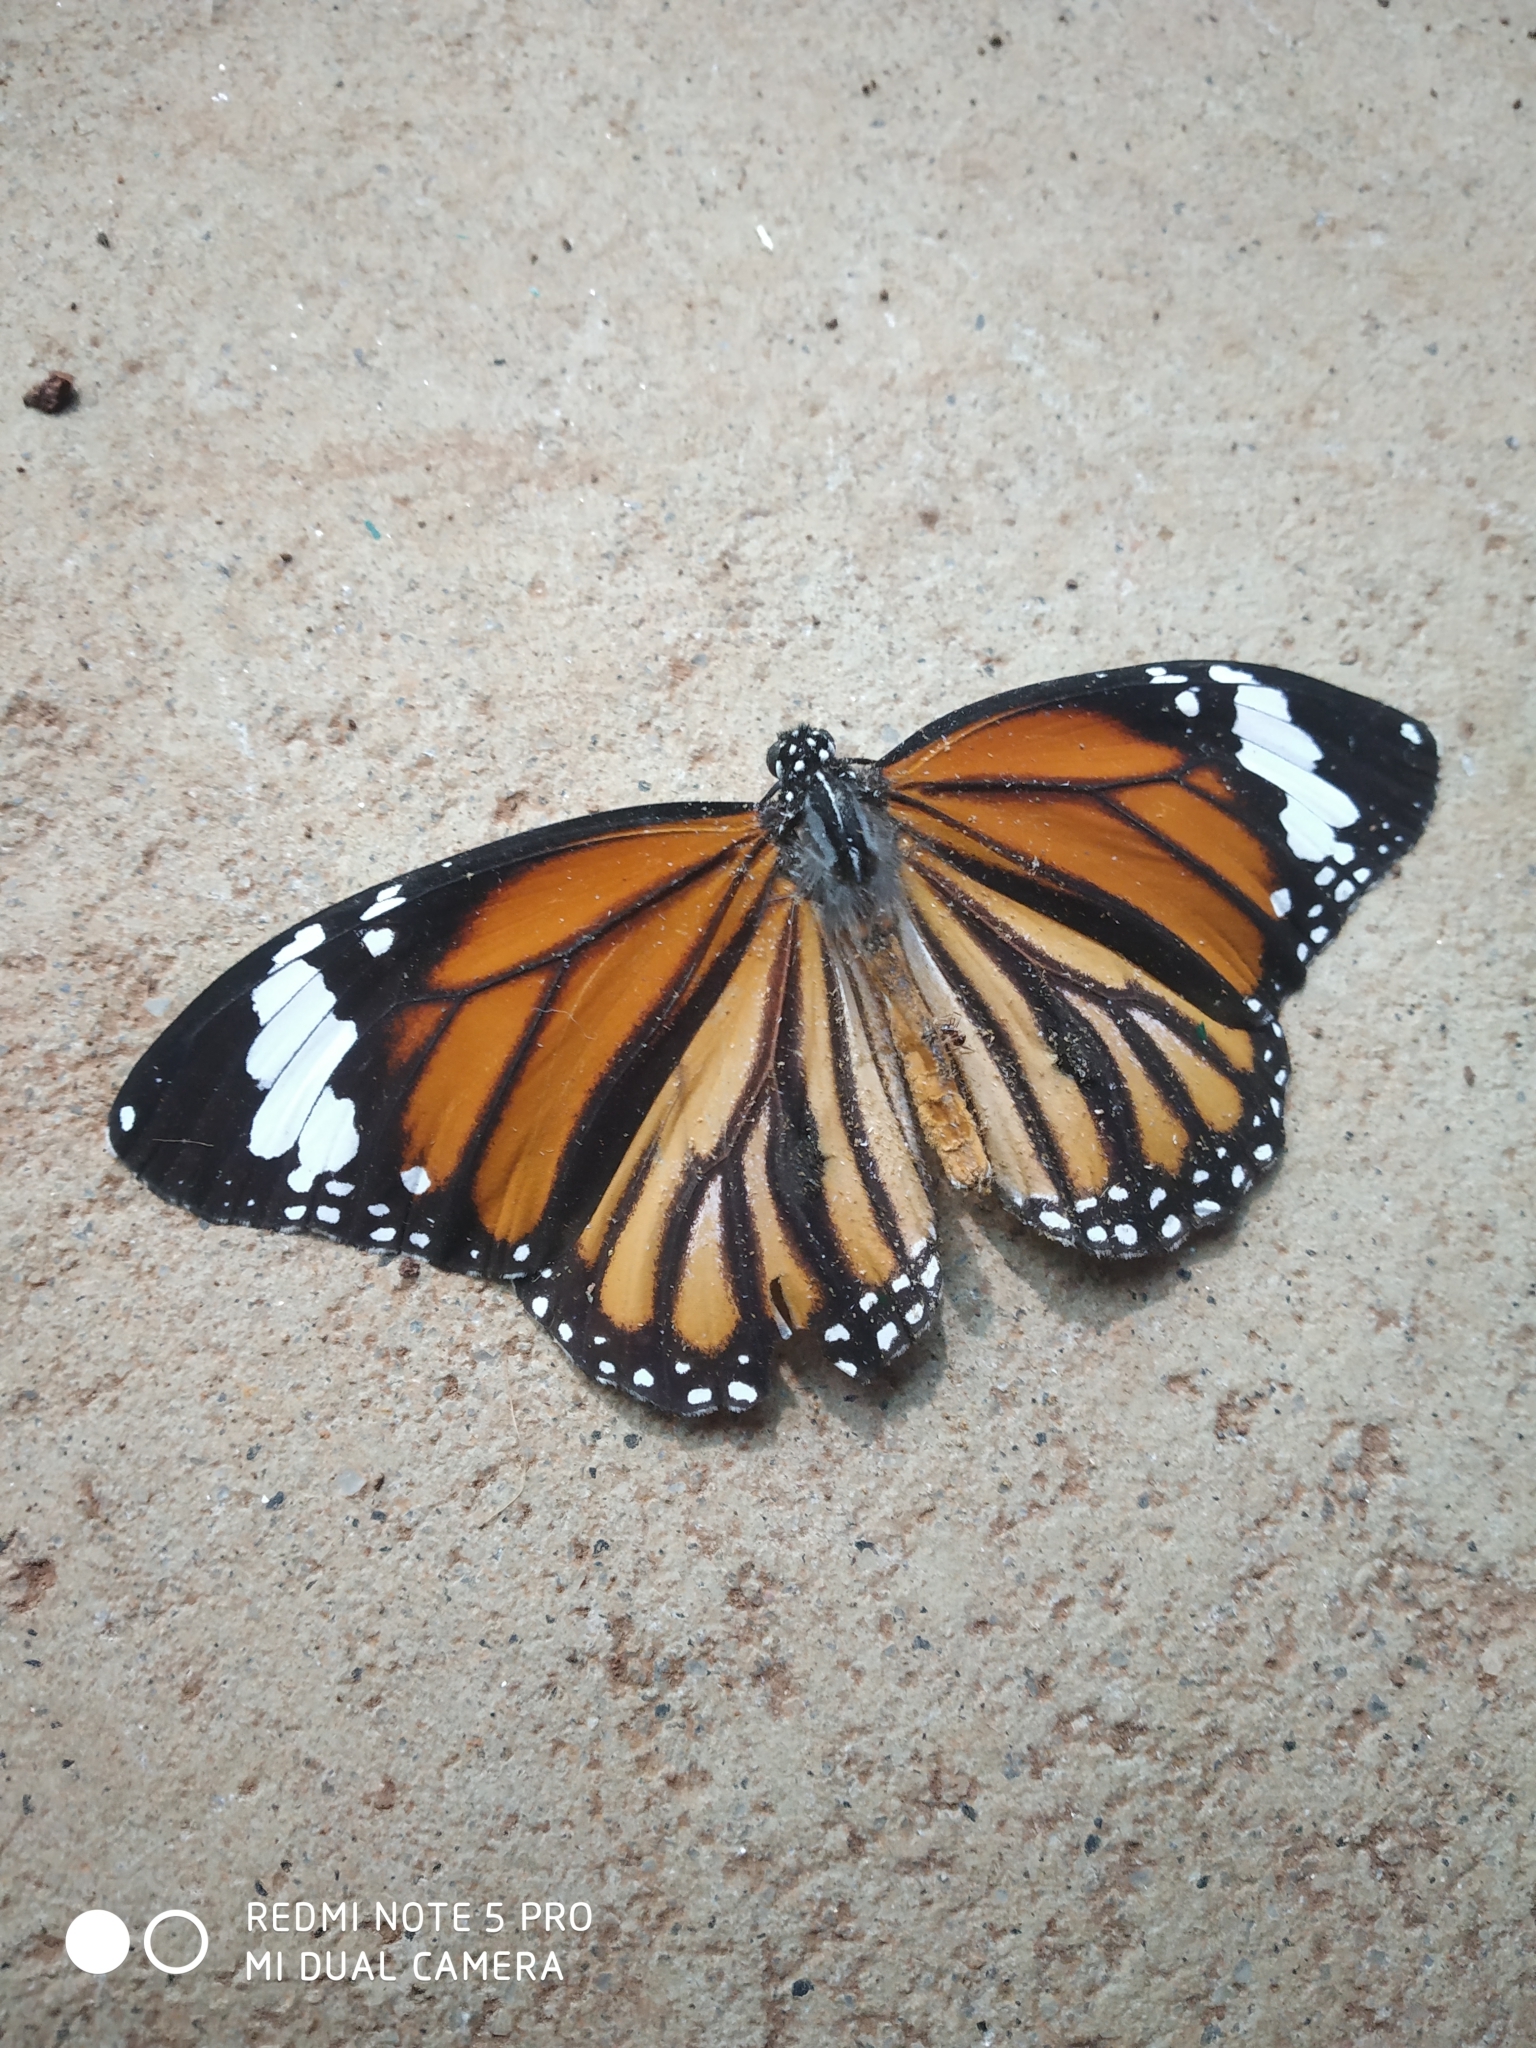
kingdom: Animalia
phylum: Arthropoda
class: Insecta
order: Lepidoptera
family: Nymphalidae
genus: Danaus
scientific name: Danaus genutia
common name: Common tiger butterfly
